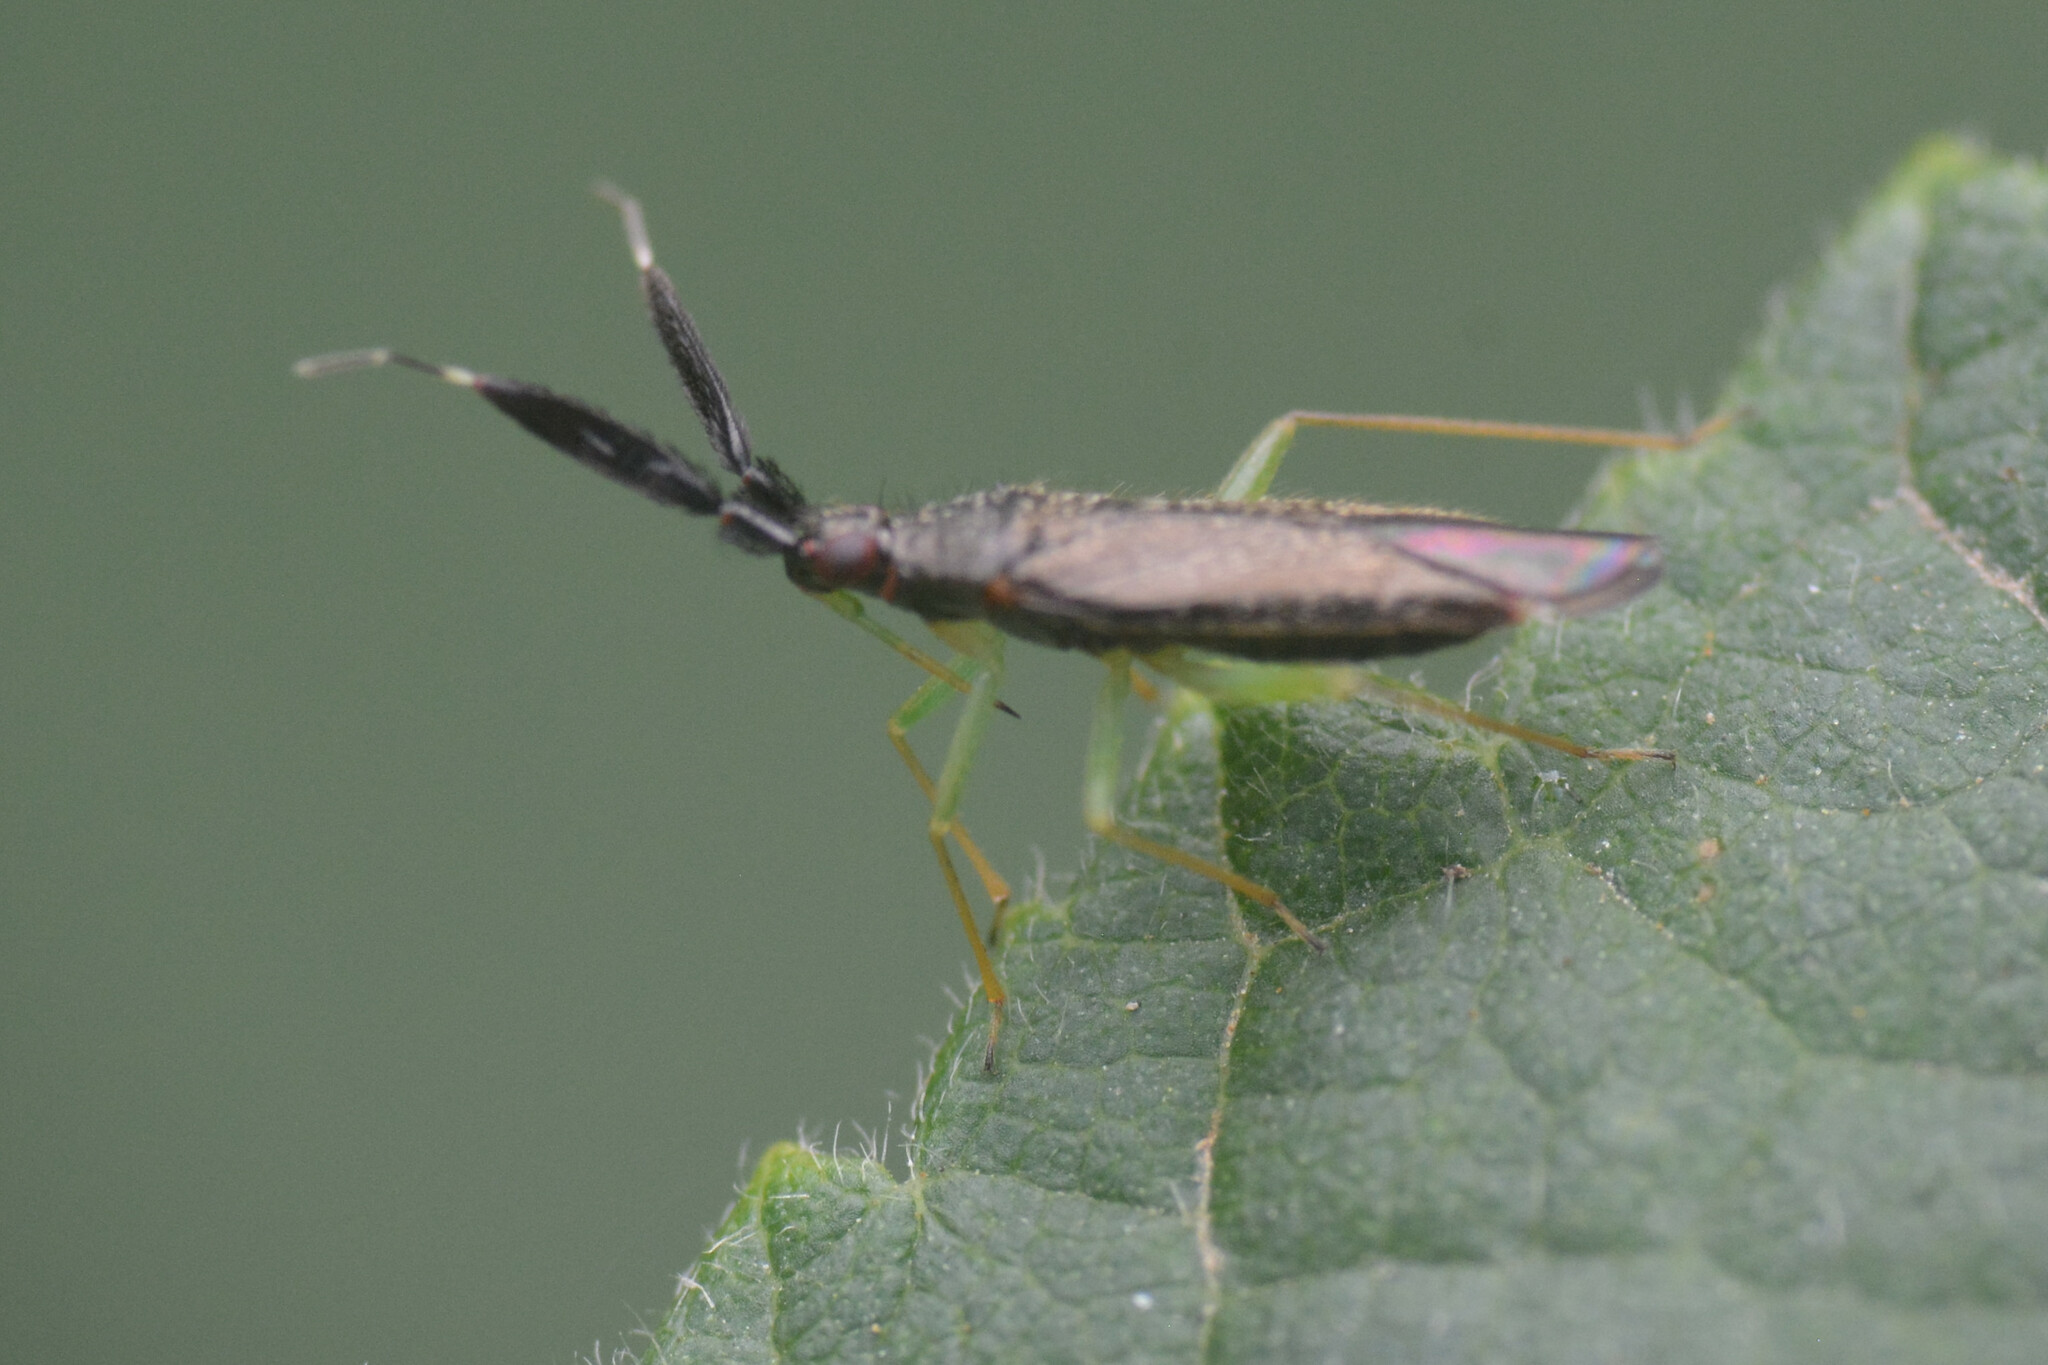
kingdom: Animalia
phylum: Arthropoda
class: Insecta
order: Hemiptera
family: Miridae
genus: Heterotoma
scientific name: Heterotoma planicornis
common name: Plant bug
